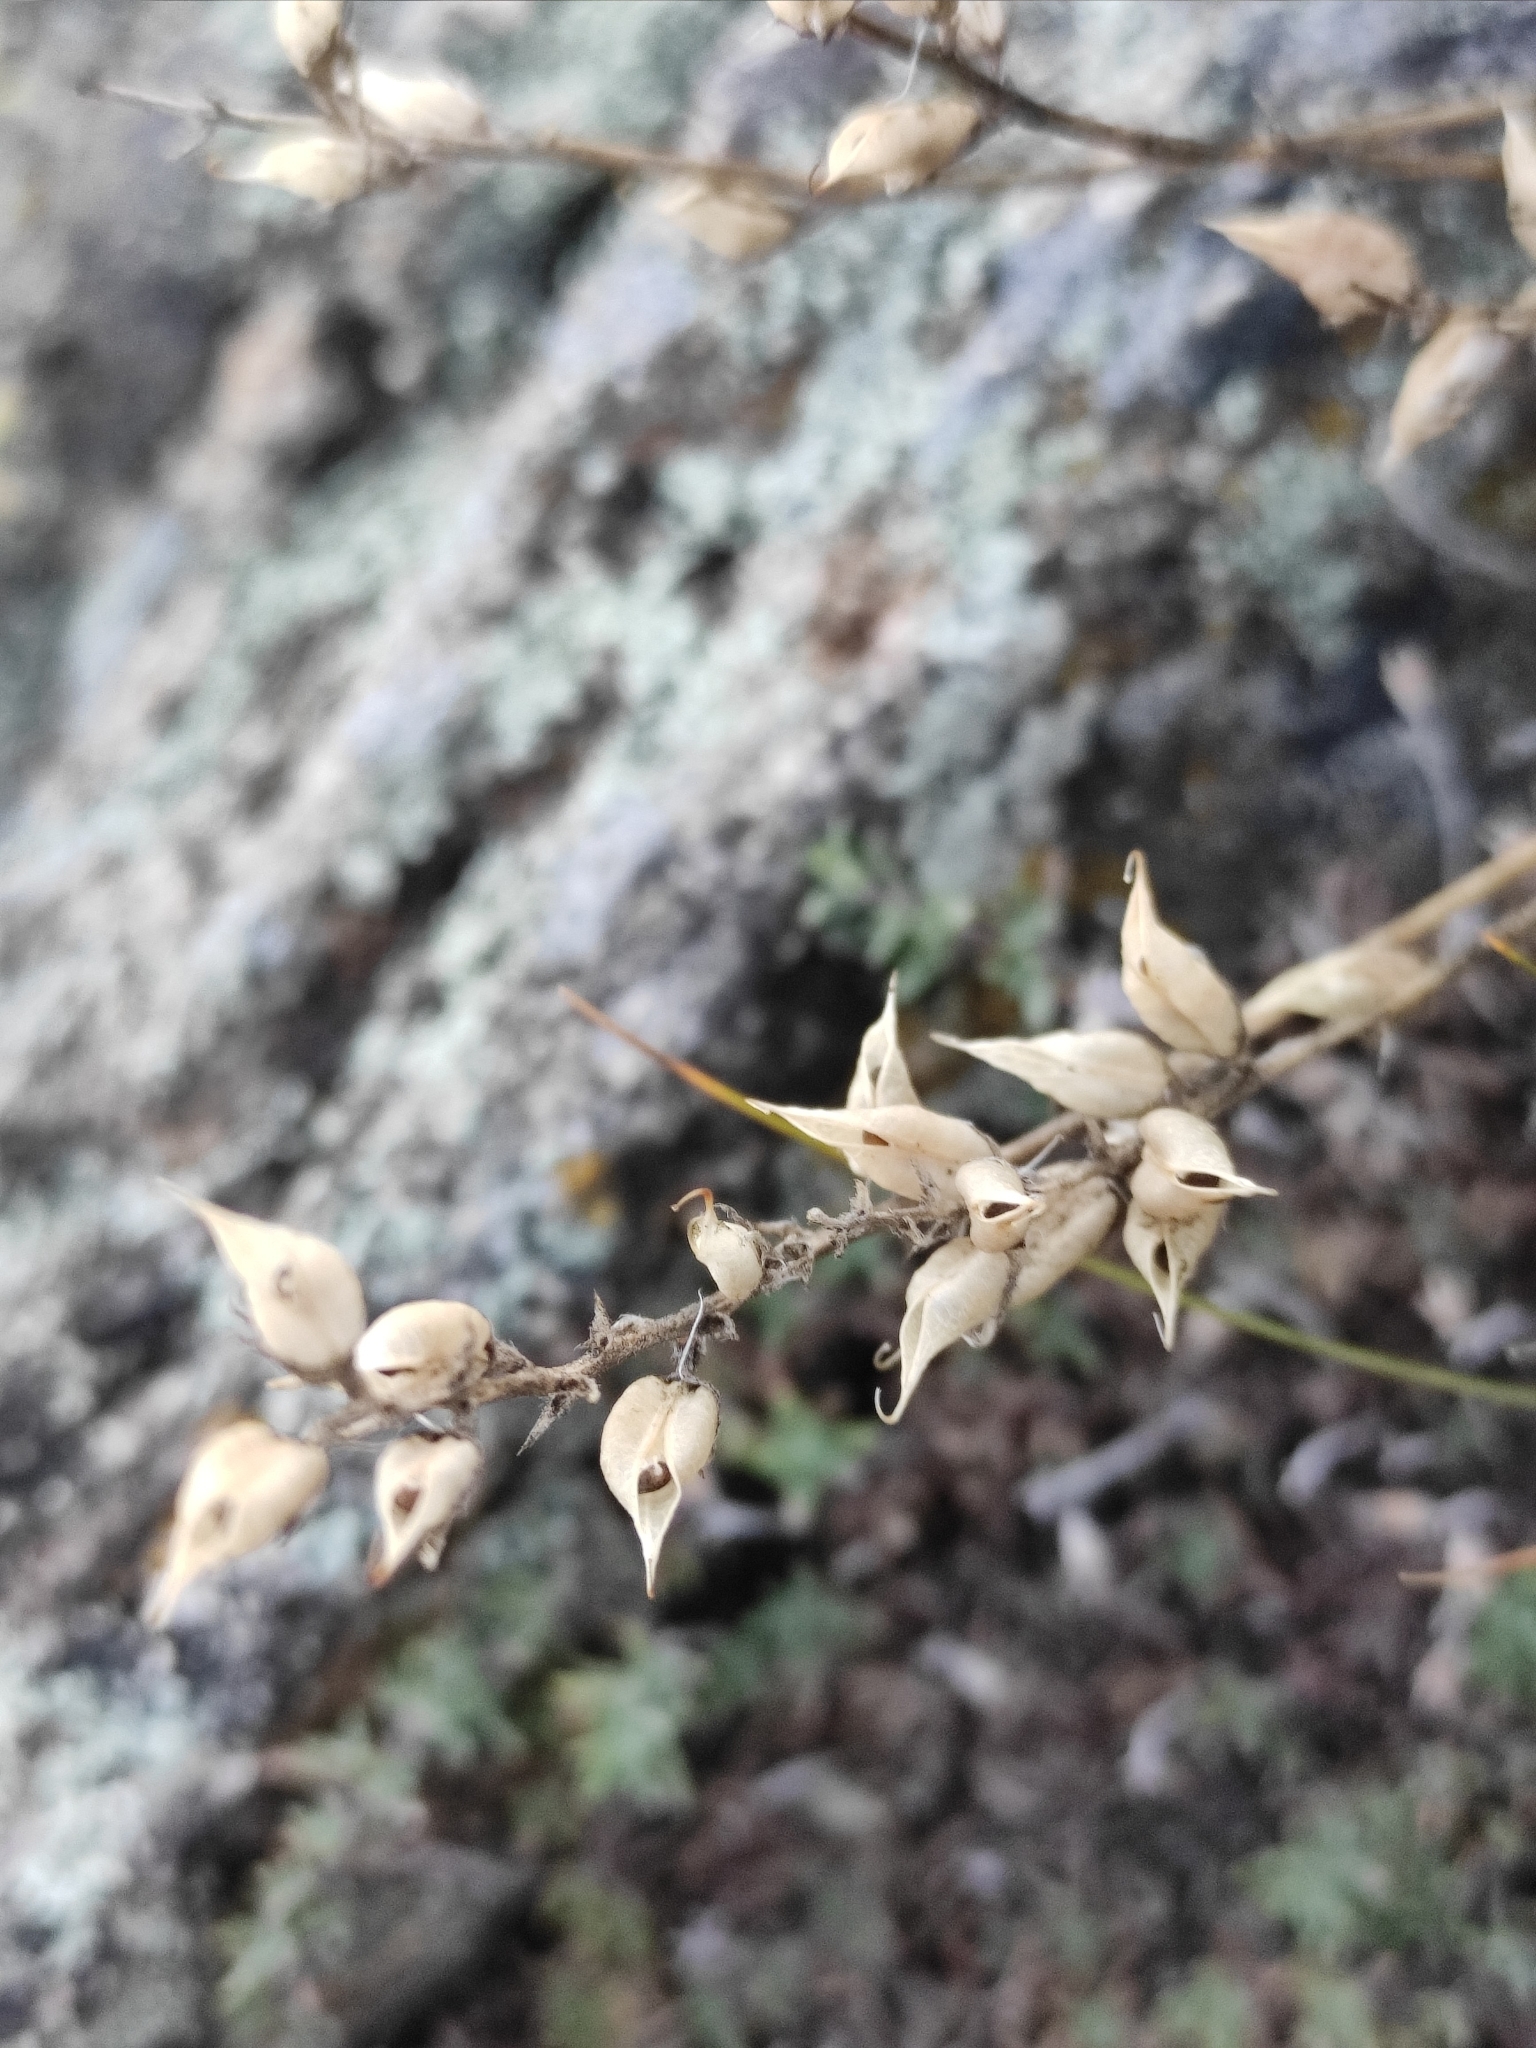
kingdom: Plantae
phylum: Tracheophyta
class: Magnoliopsida
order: Fabales
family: Fabaceae
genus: Oxytropis
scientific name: Oxytropis coerulea
